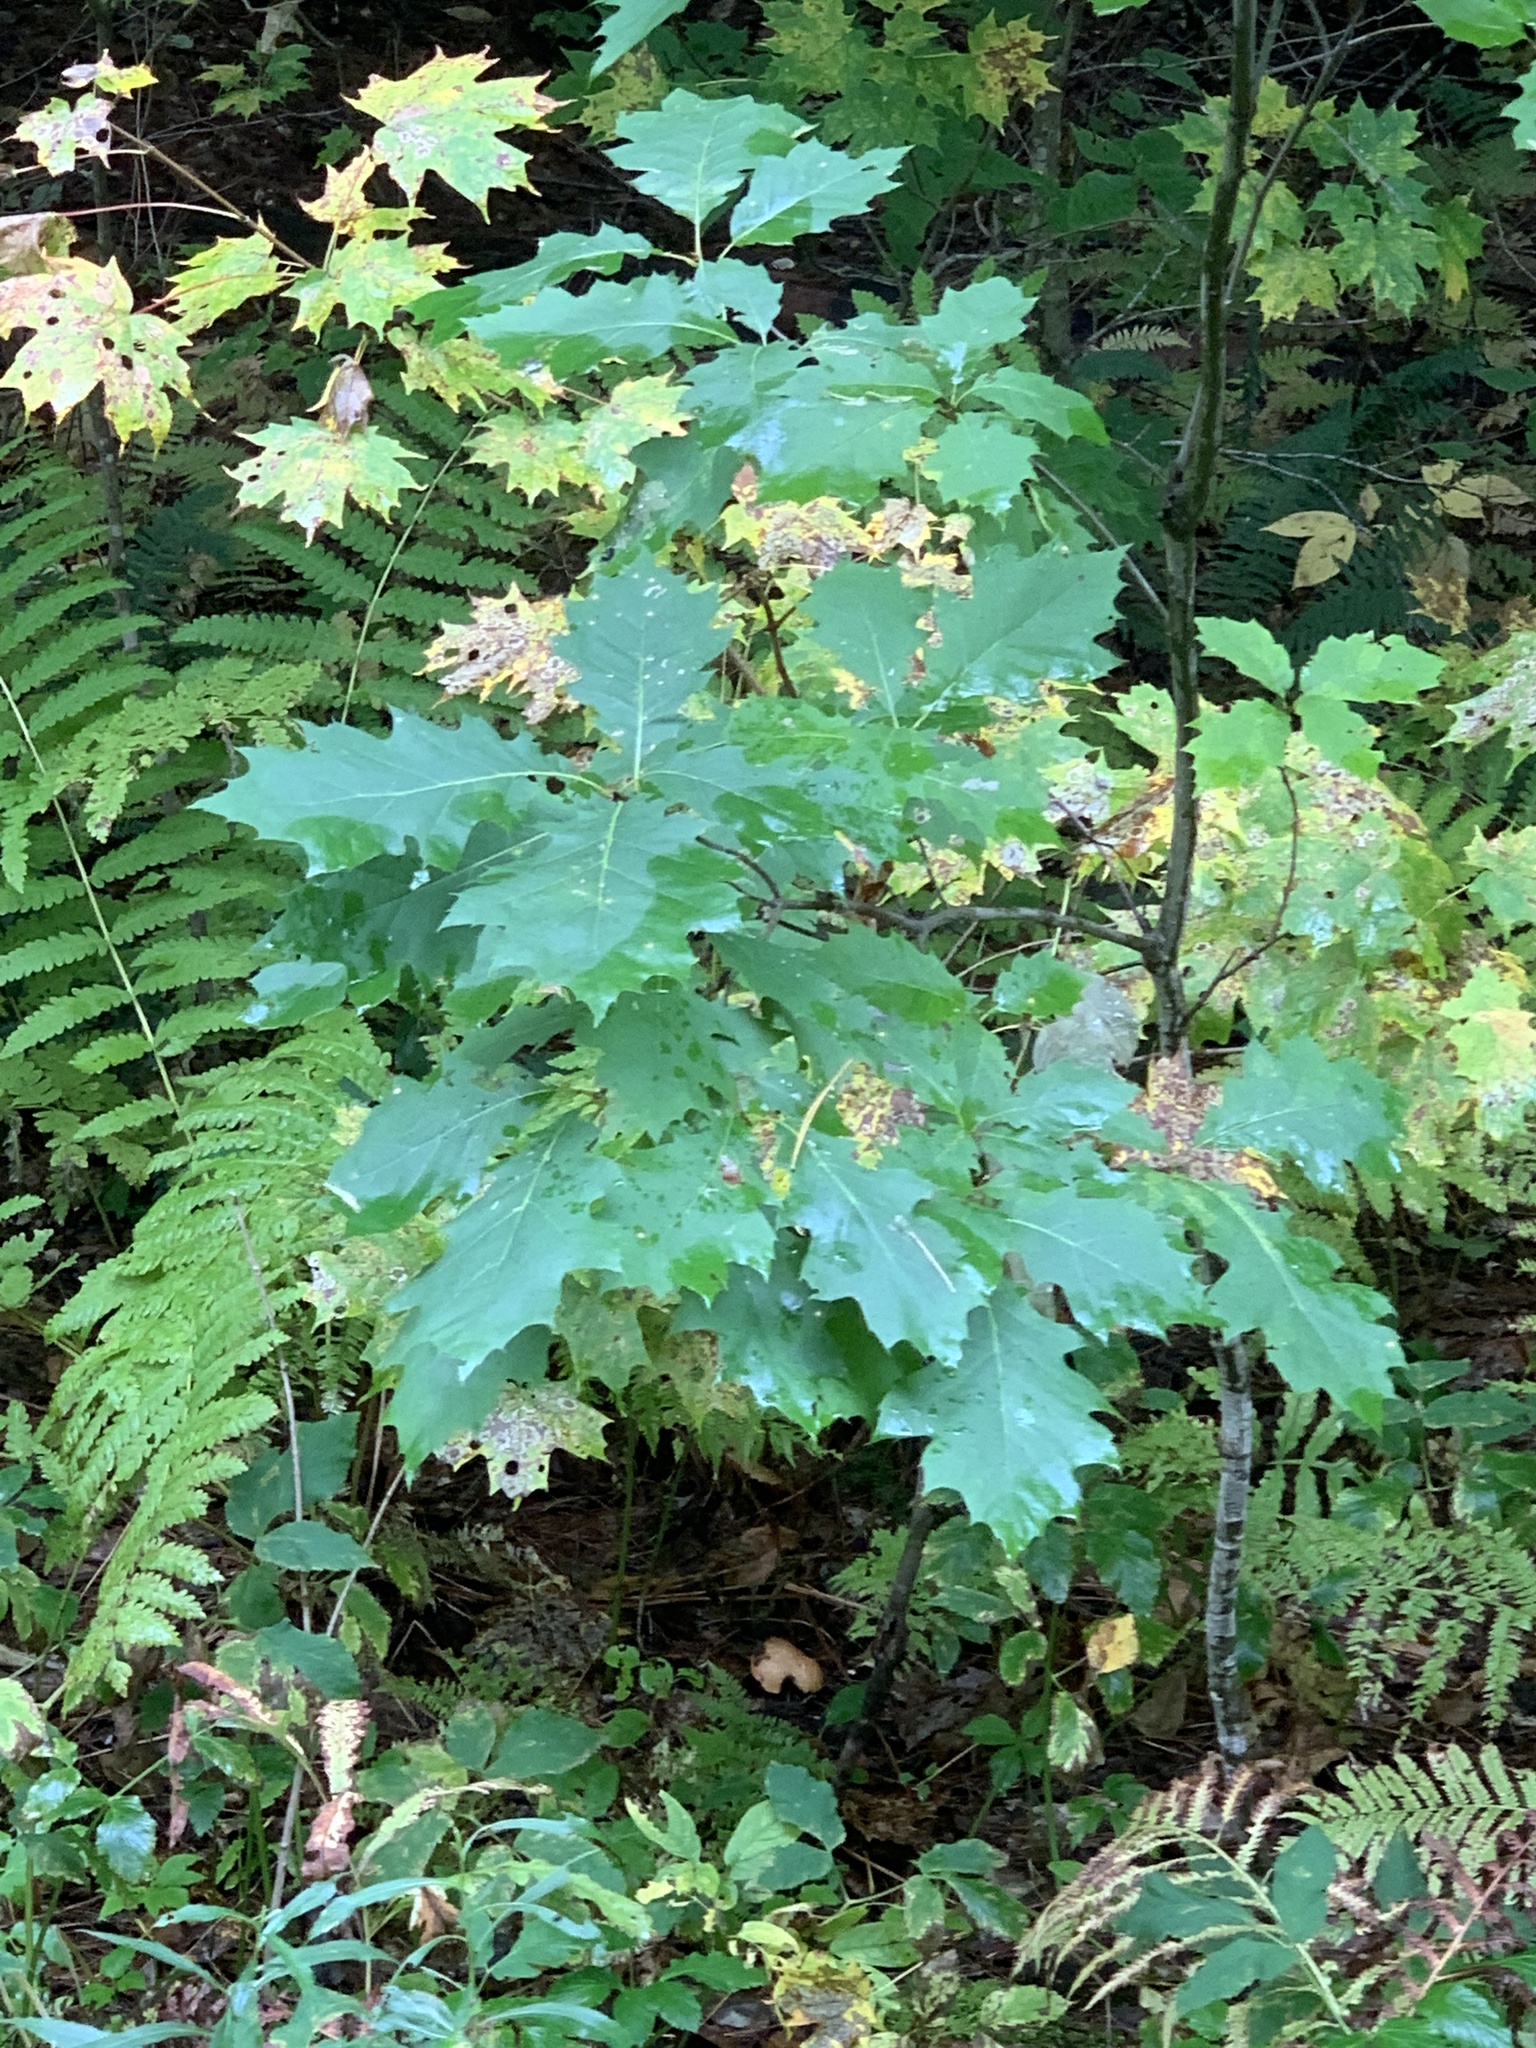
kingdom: Plantae
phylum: Tracheophyta
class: Magnoliopsida
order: Fagales
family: Fagaceae
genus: Quercus
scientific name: Quercus rubra
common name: Red oak
